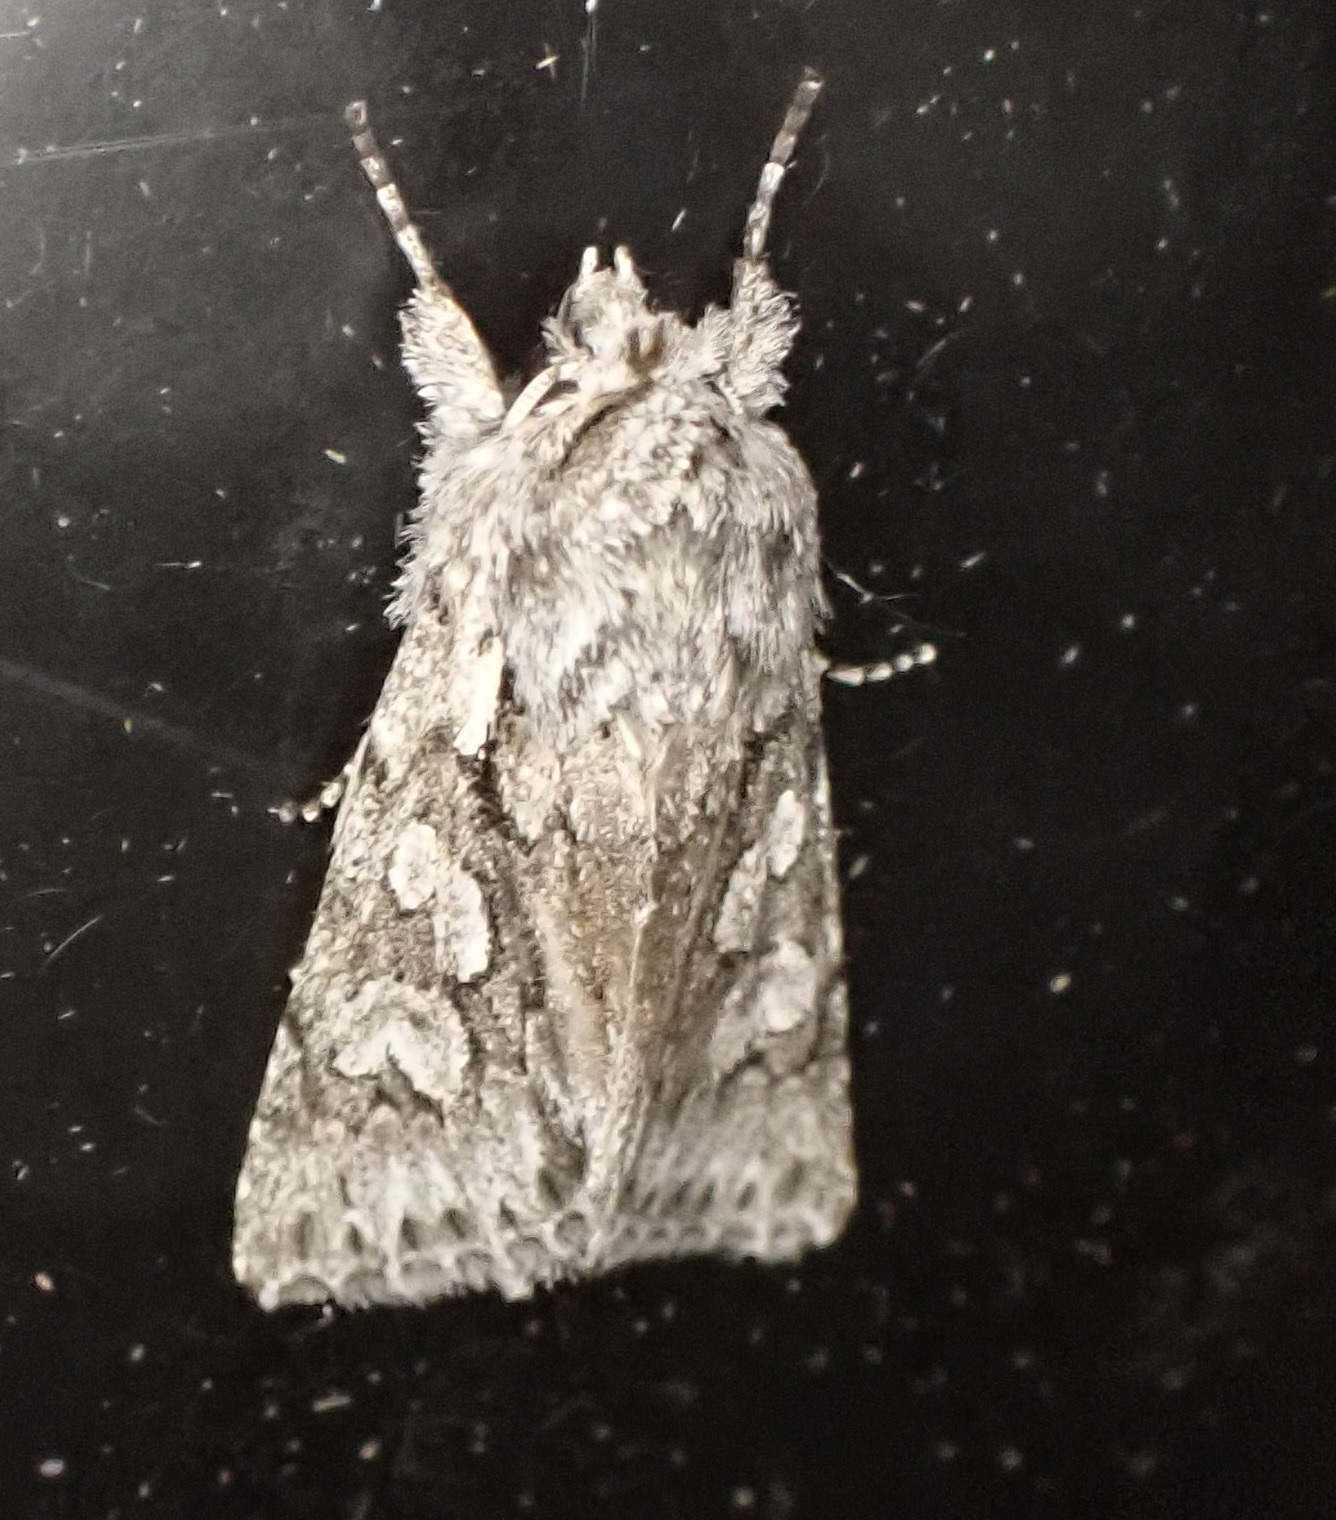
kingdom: Animalia
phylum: Arthropoda
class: Insecta
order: Lepidoptera
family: Noctuidae
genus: Xylocampa
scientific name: Xylocampa areola
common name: Early grey
